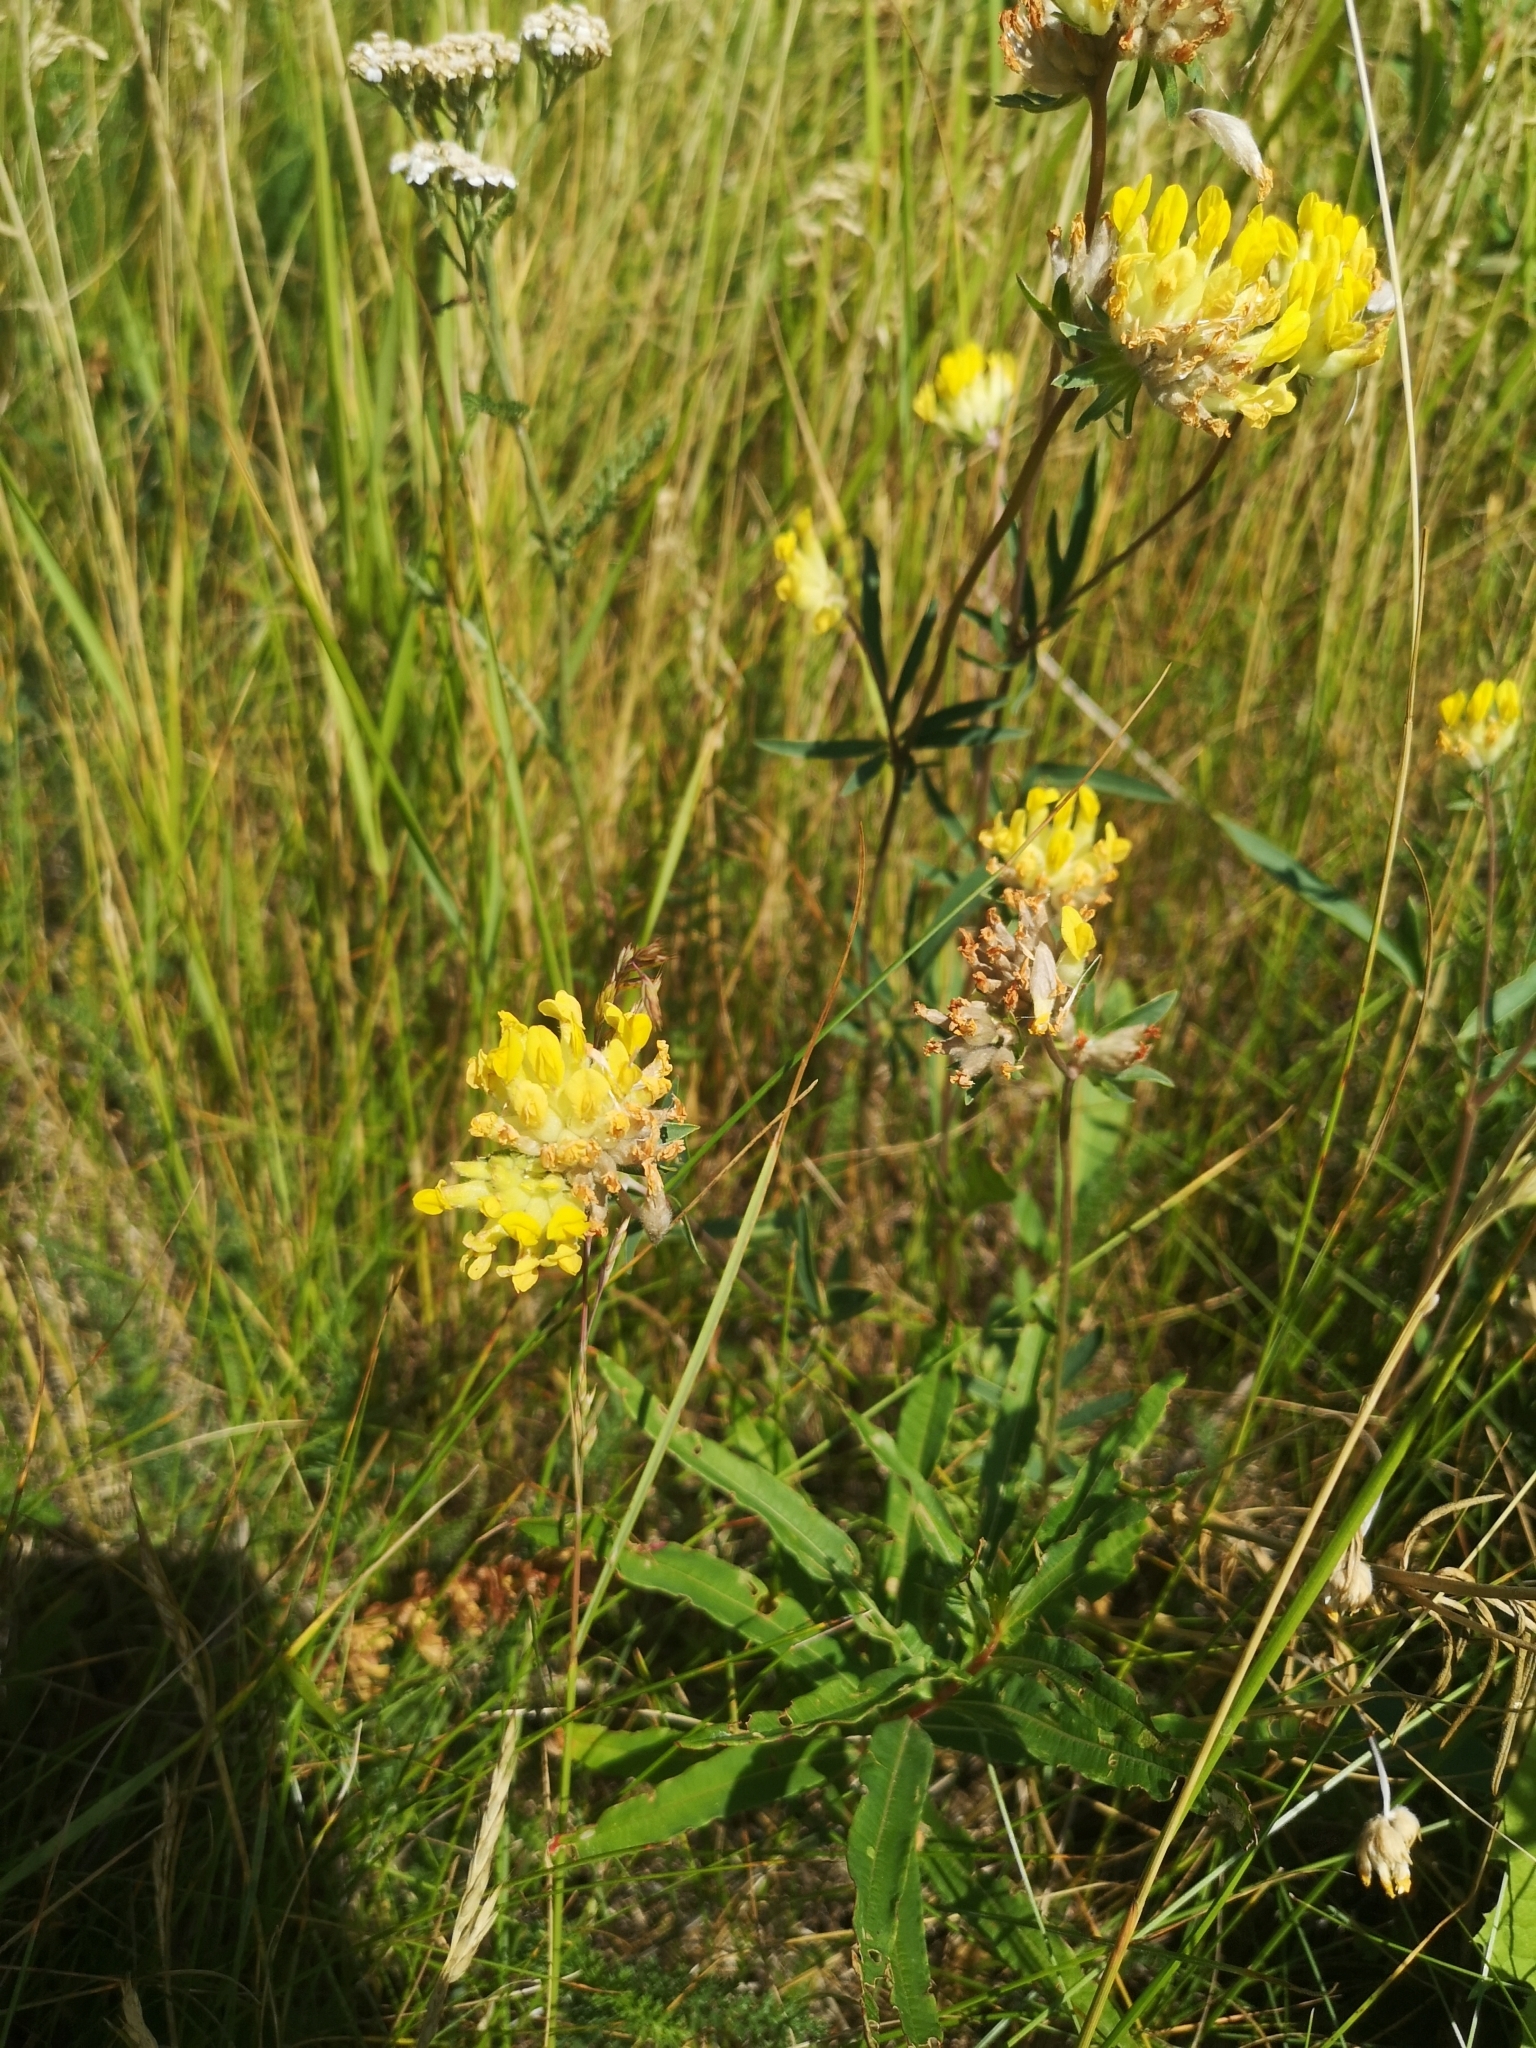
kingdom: Plantae
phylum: Tracheophyta
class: Magnoliopsida
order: Fabales
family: Fabaceae
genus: Anthyllis
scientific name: Anthyllis vulneraria
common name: Kidney vetch
